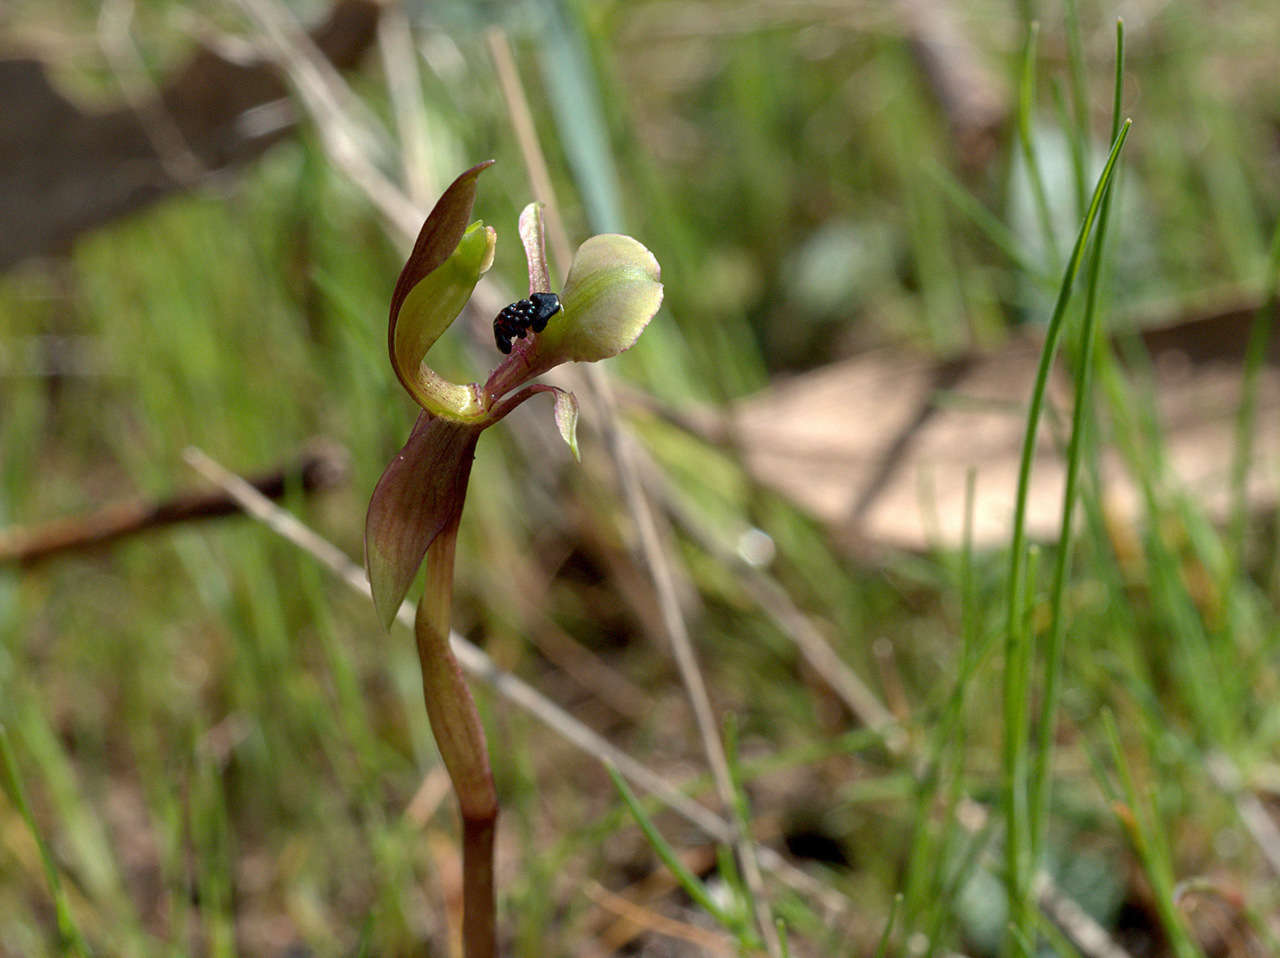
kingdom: Plantae
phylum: Tracheophyta
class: Liliopsida
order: Asparagales
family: Orchidaceae
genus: Chiloglottis
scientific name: Chiloglottis trapeziformis
